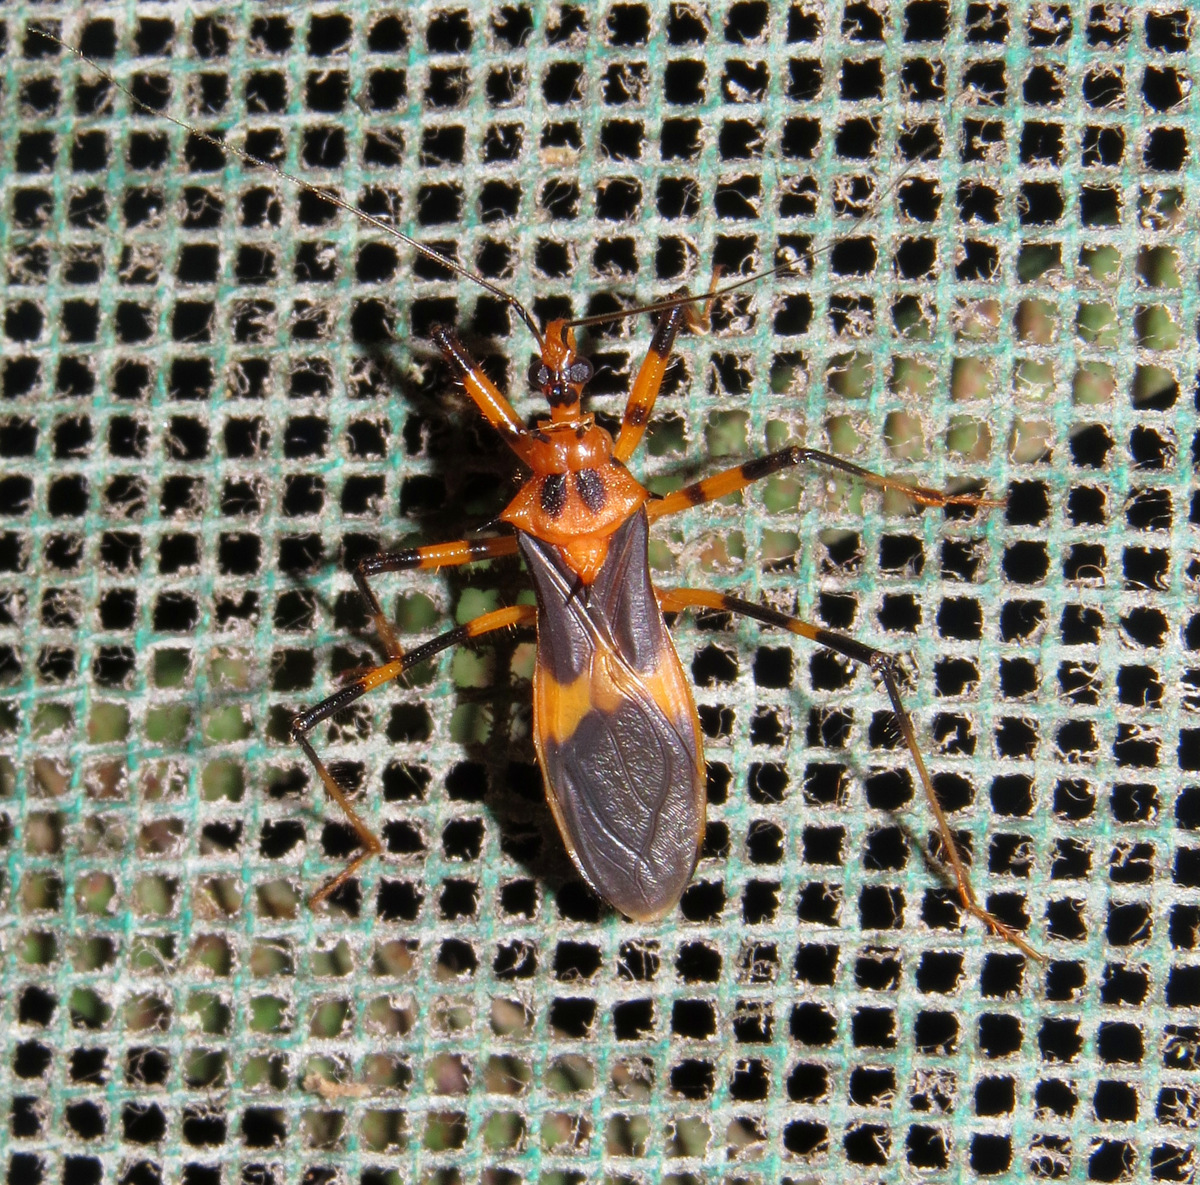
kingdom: Animalia
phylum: Arthropoda
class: Insecta
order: Hemiptera
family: Reduviidae
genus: Zelurus
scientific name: Zelurus melanochrus
